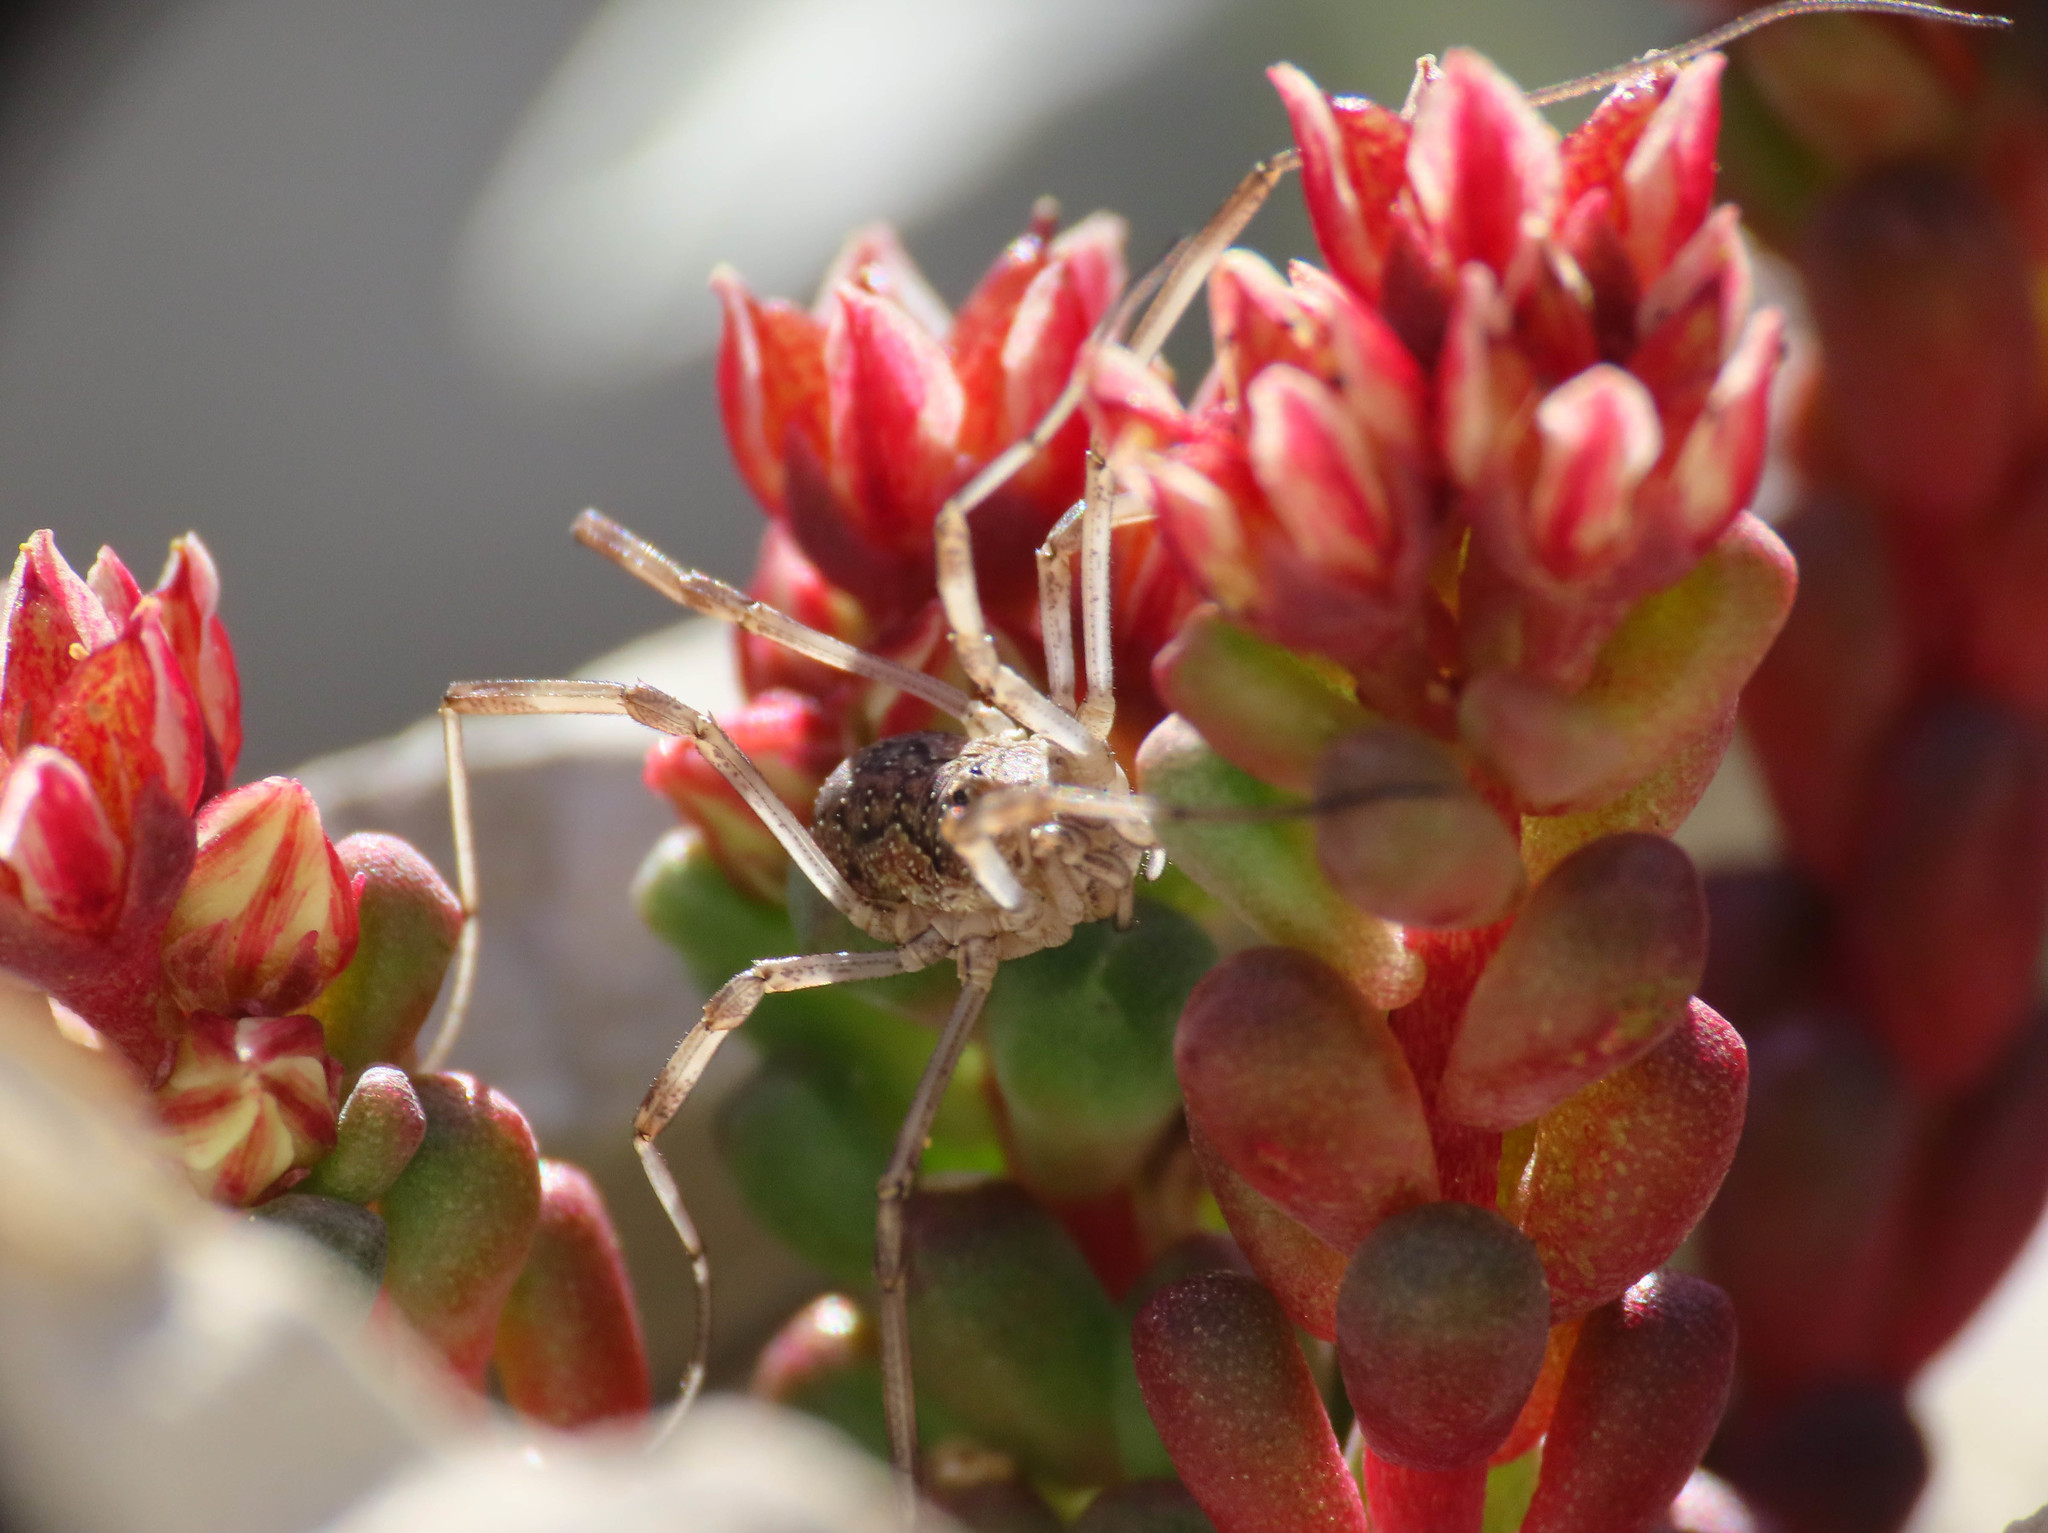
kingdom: Animalia
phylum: Arthropoda
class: Arachnida
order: Opiliones
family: Phalangiidae
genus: Mitopus
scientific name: Mitopus morio
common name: Saddleback harvestman
